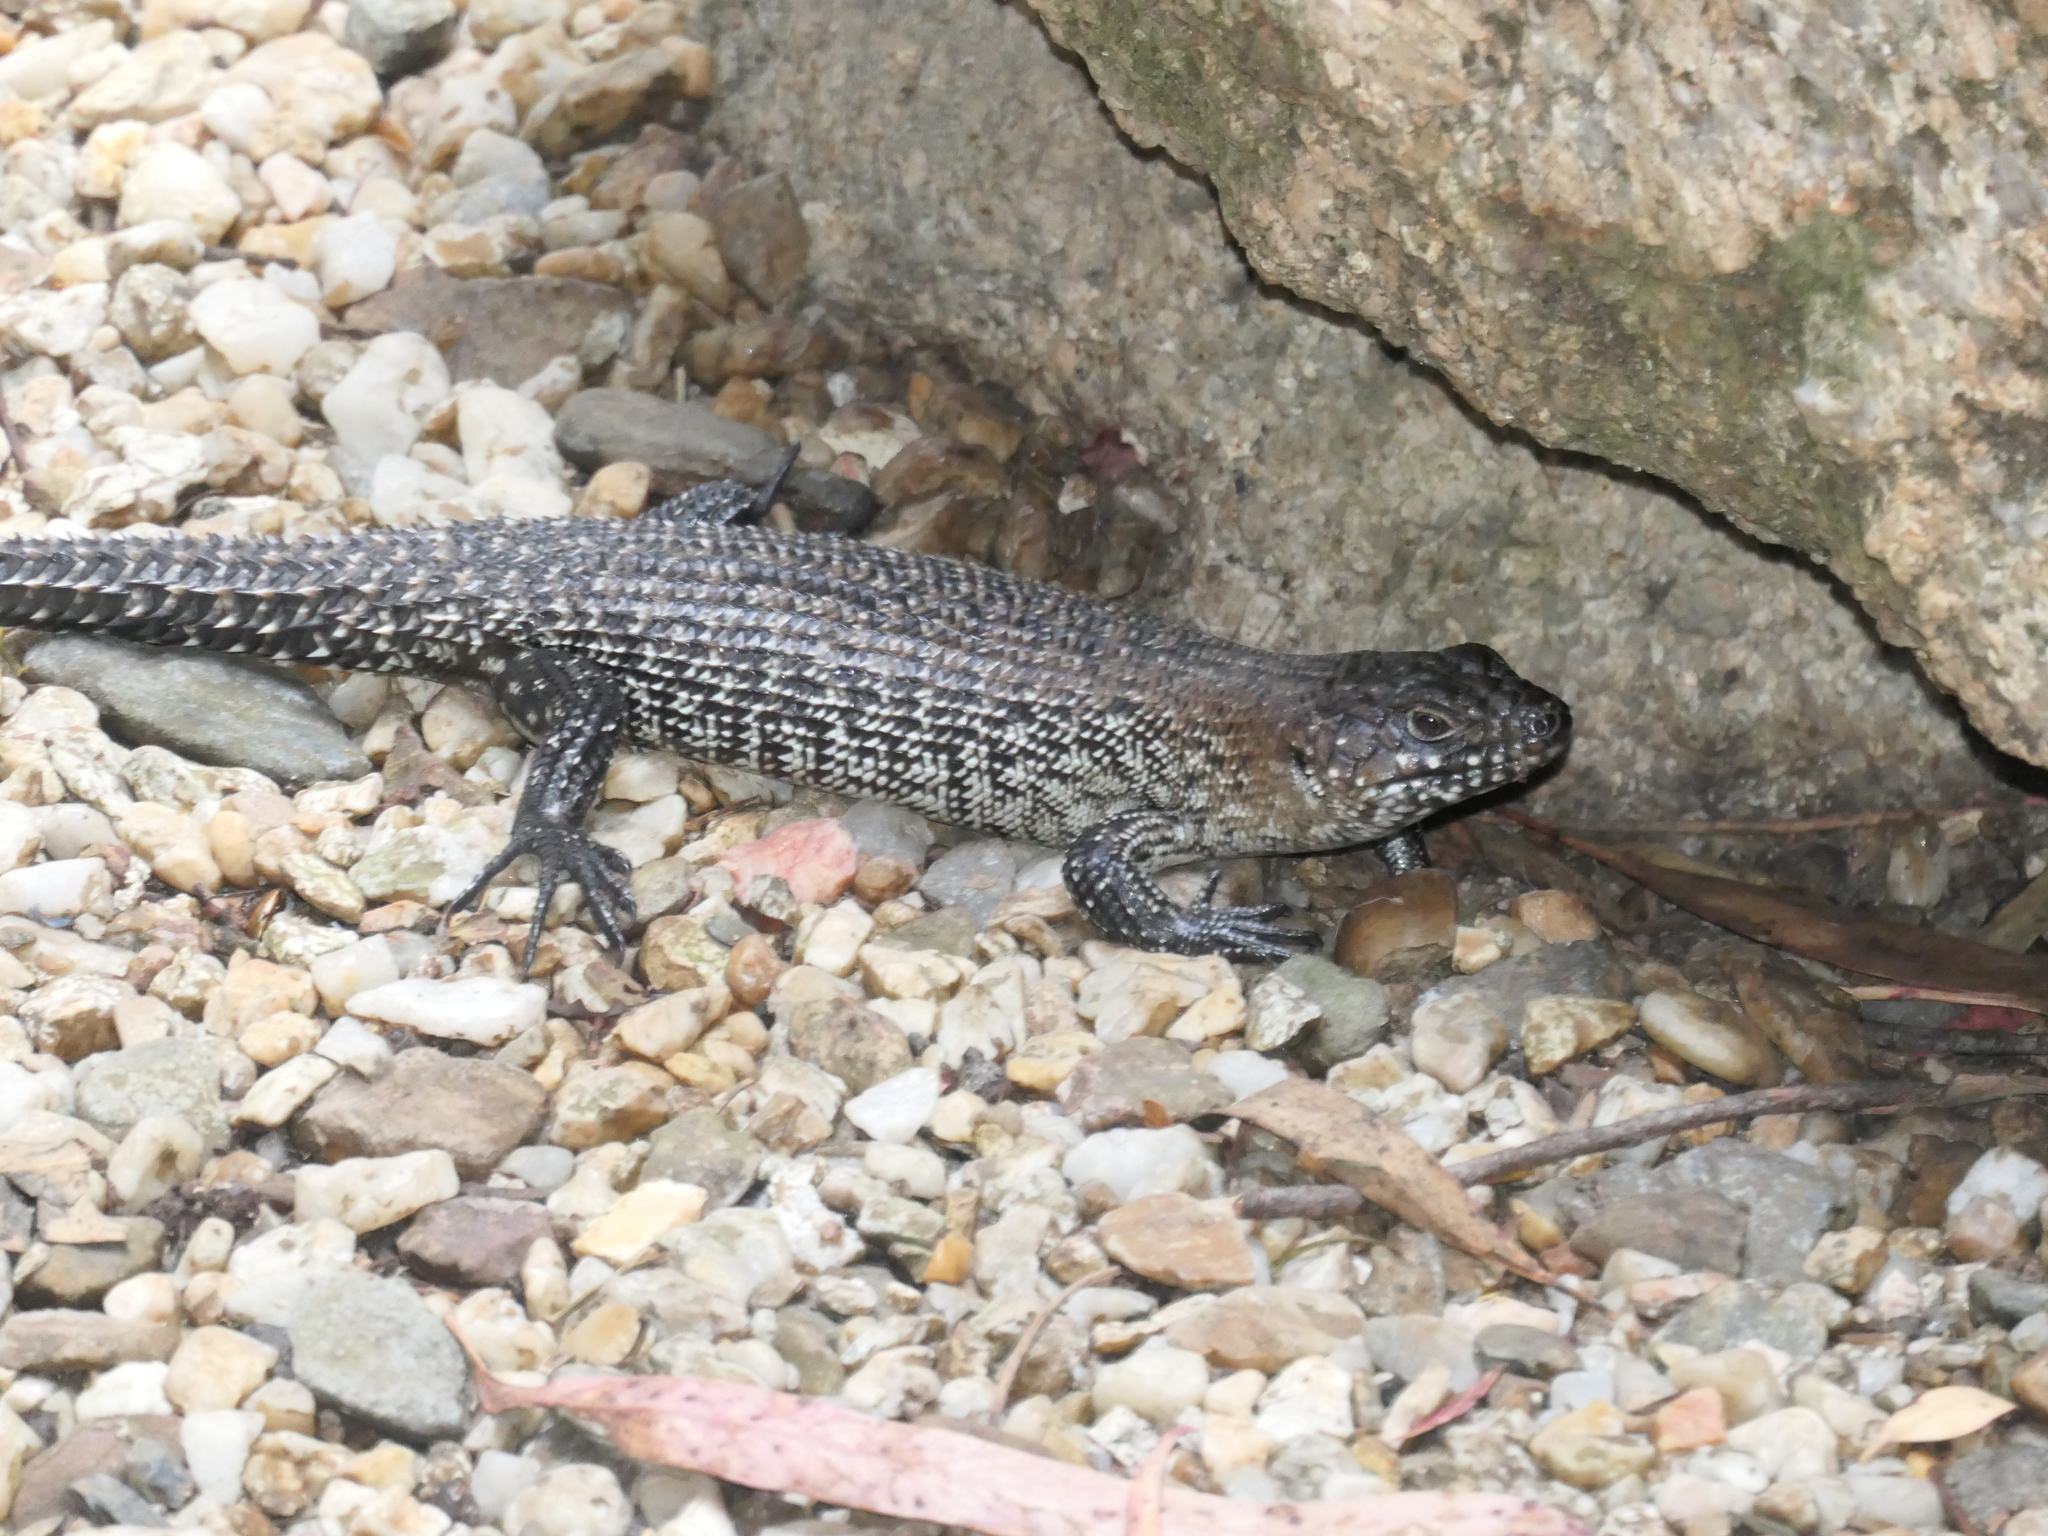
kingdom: Animalia
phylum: Chordata
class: Squamata
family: Scincidae
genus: Egernia
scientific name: Egernia cunninghami
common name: Cunningham's skink
